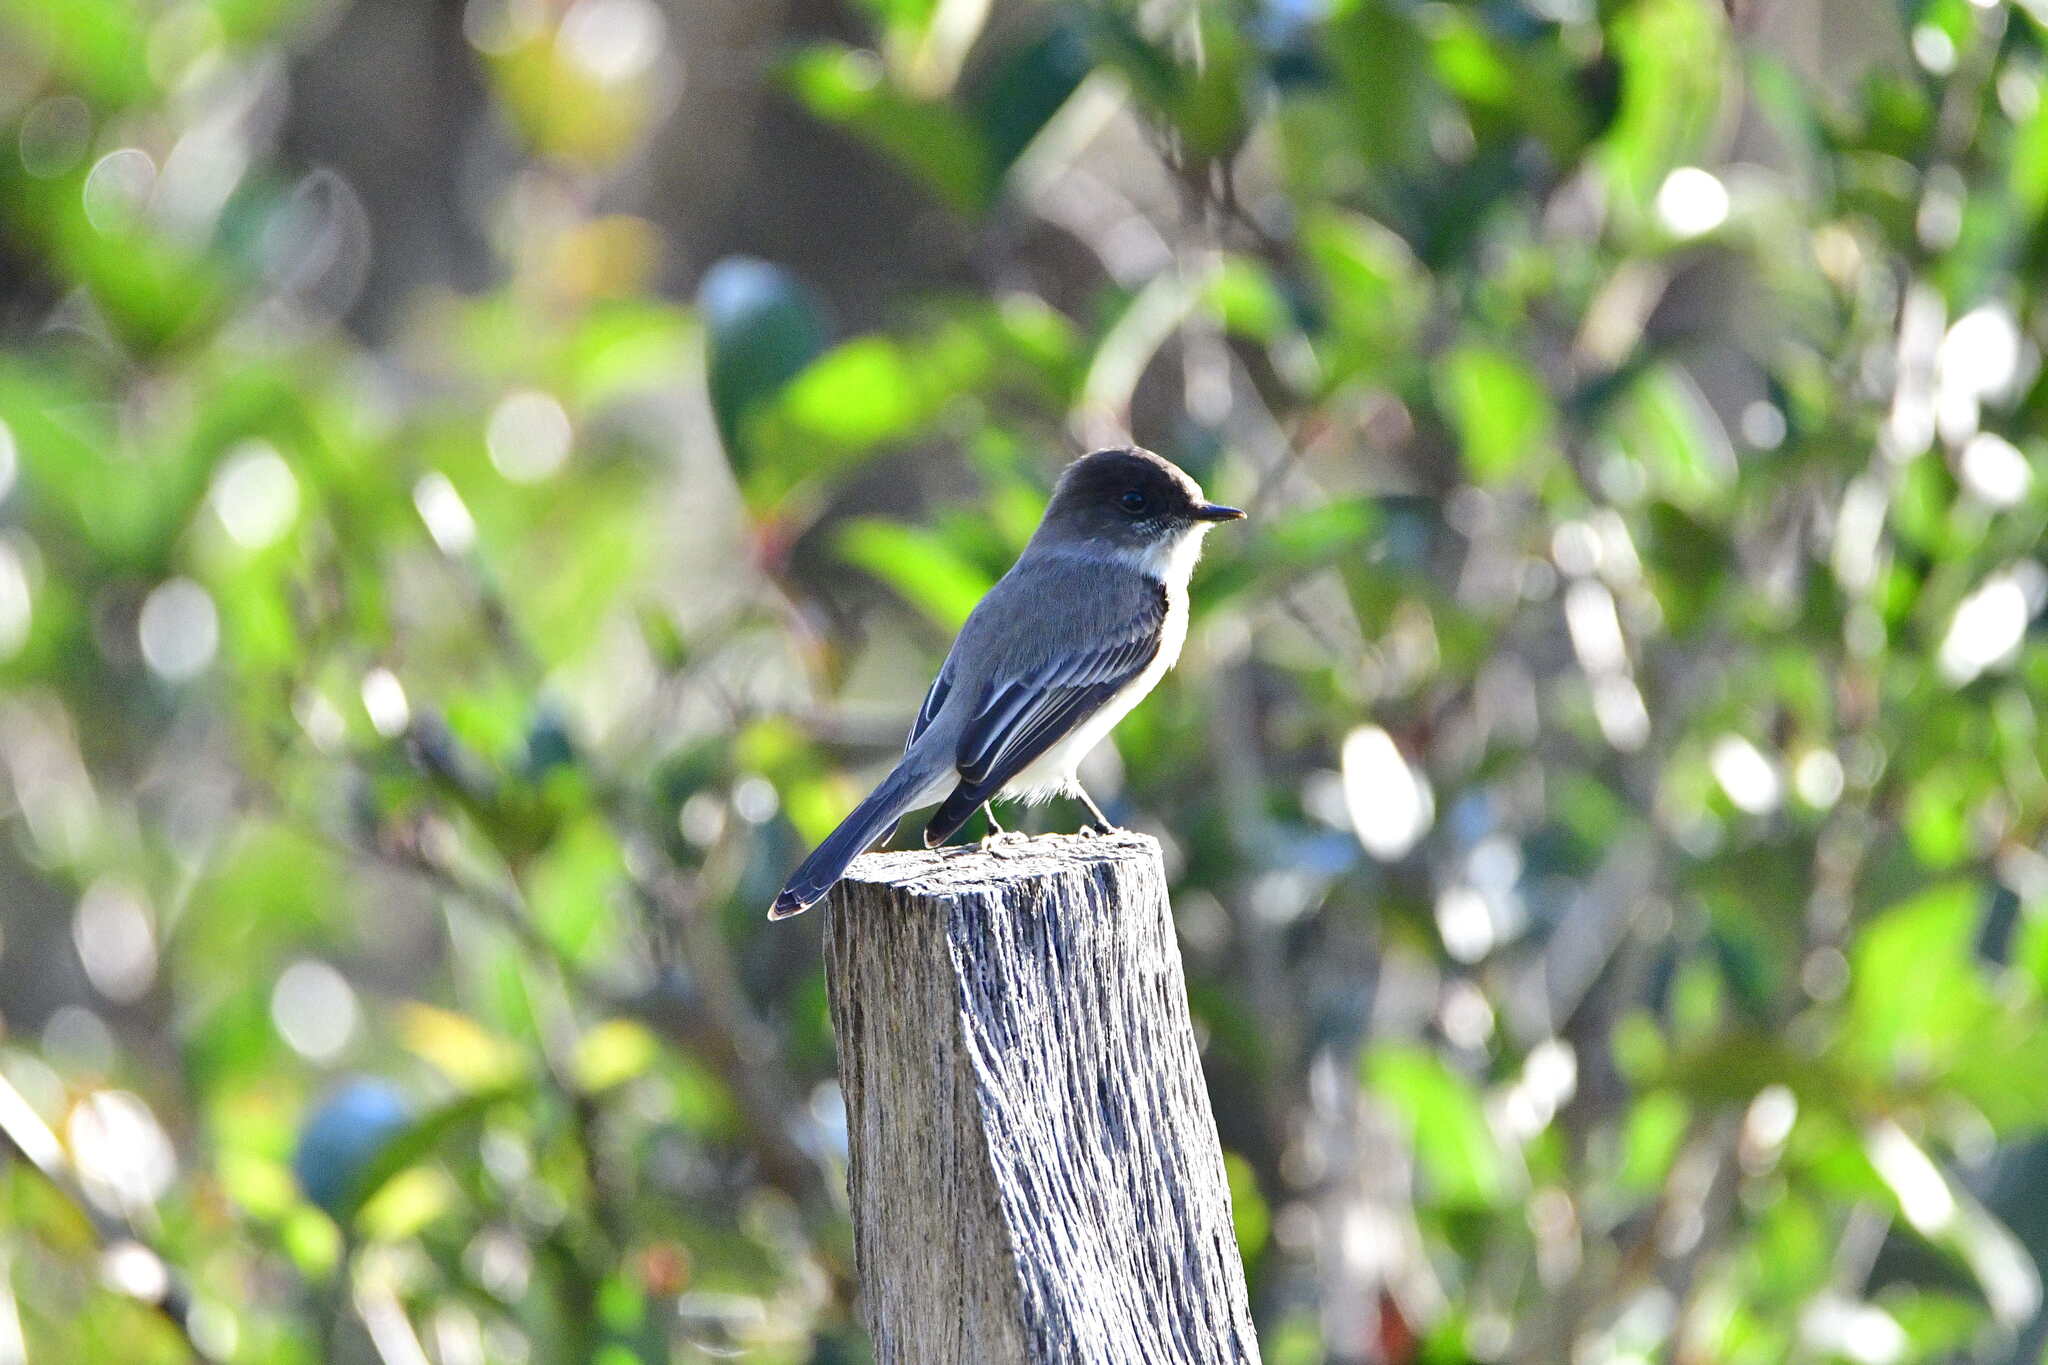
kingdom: Animalia
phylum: Chordata
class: Aves
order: Passeriformes
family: Tyrannidae
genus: Sayornis
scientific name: Sayornis phoebe
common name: Eastern phoebe
